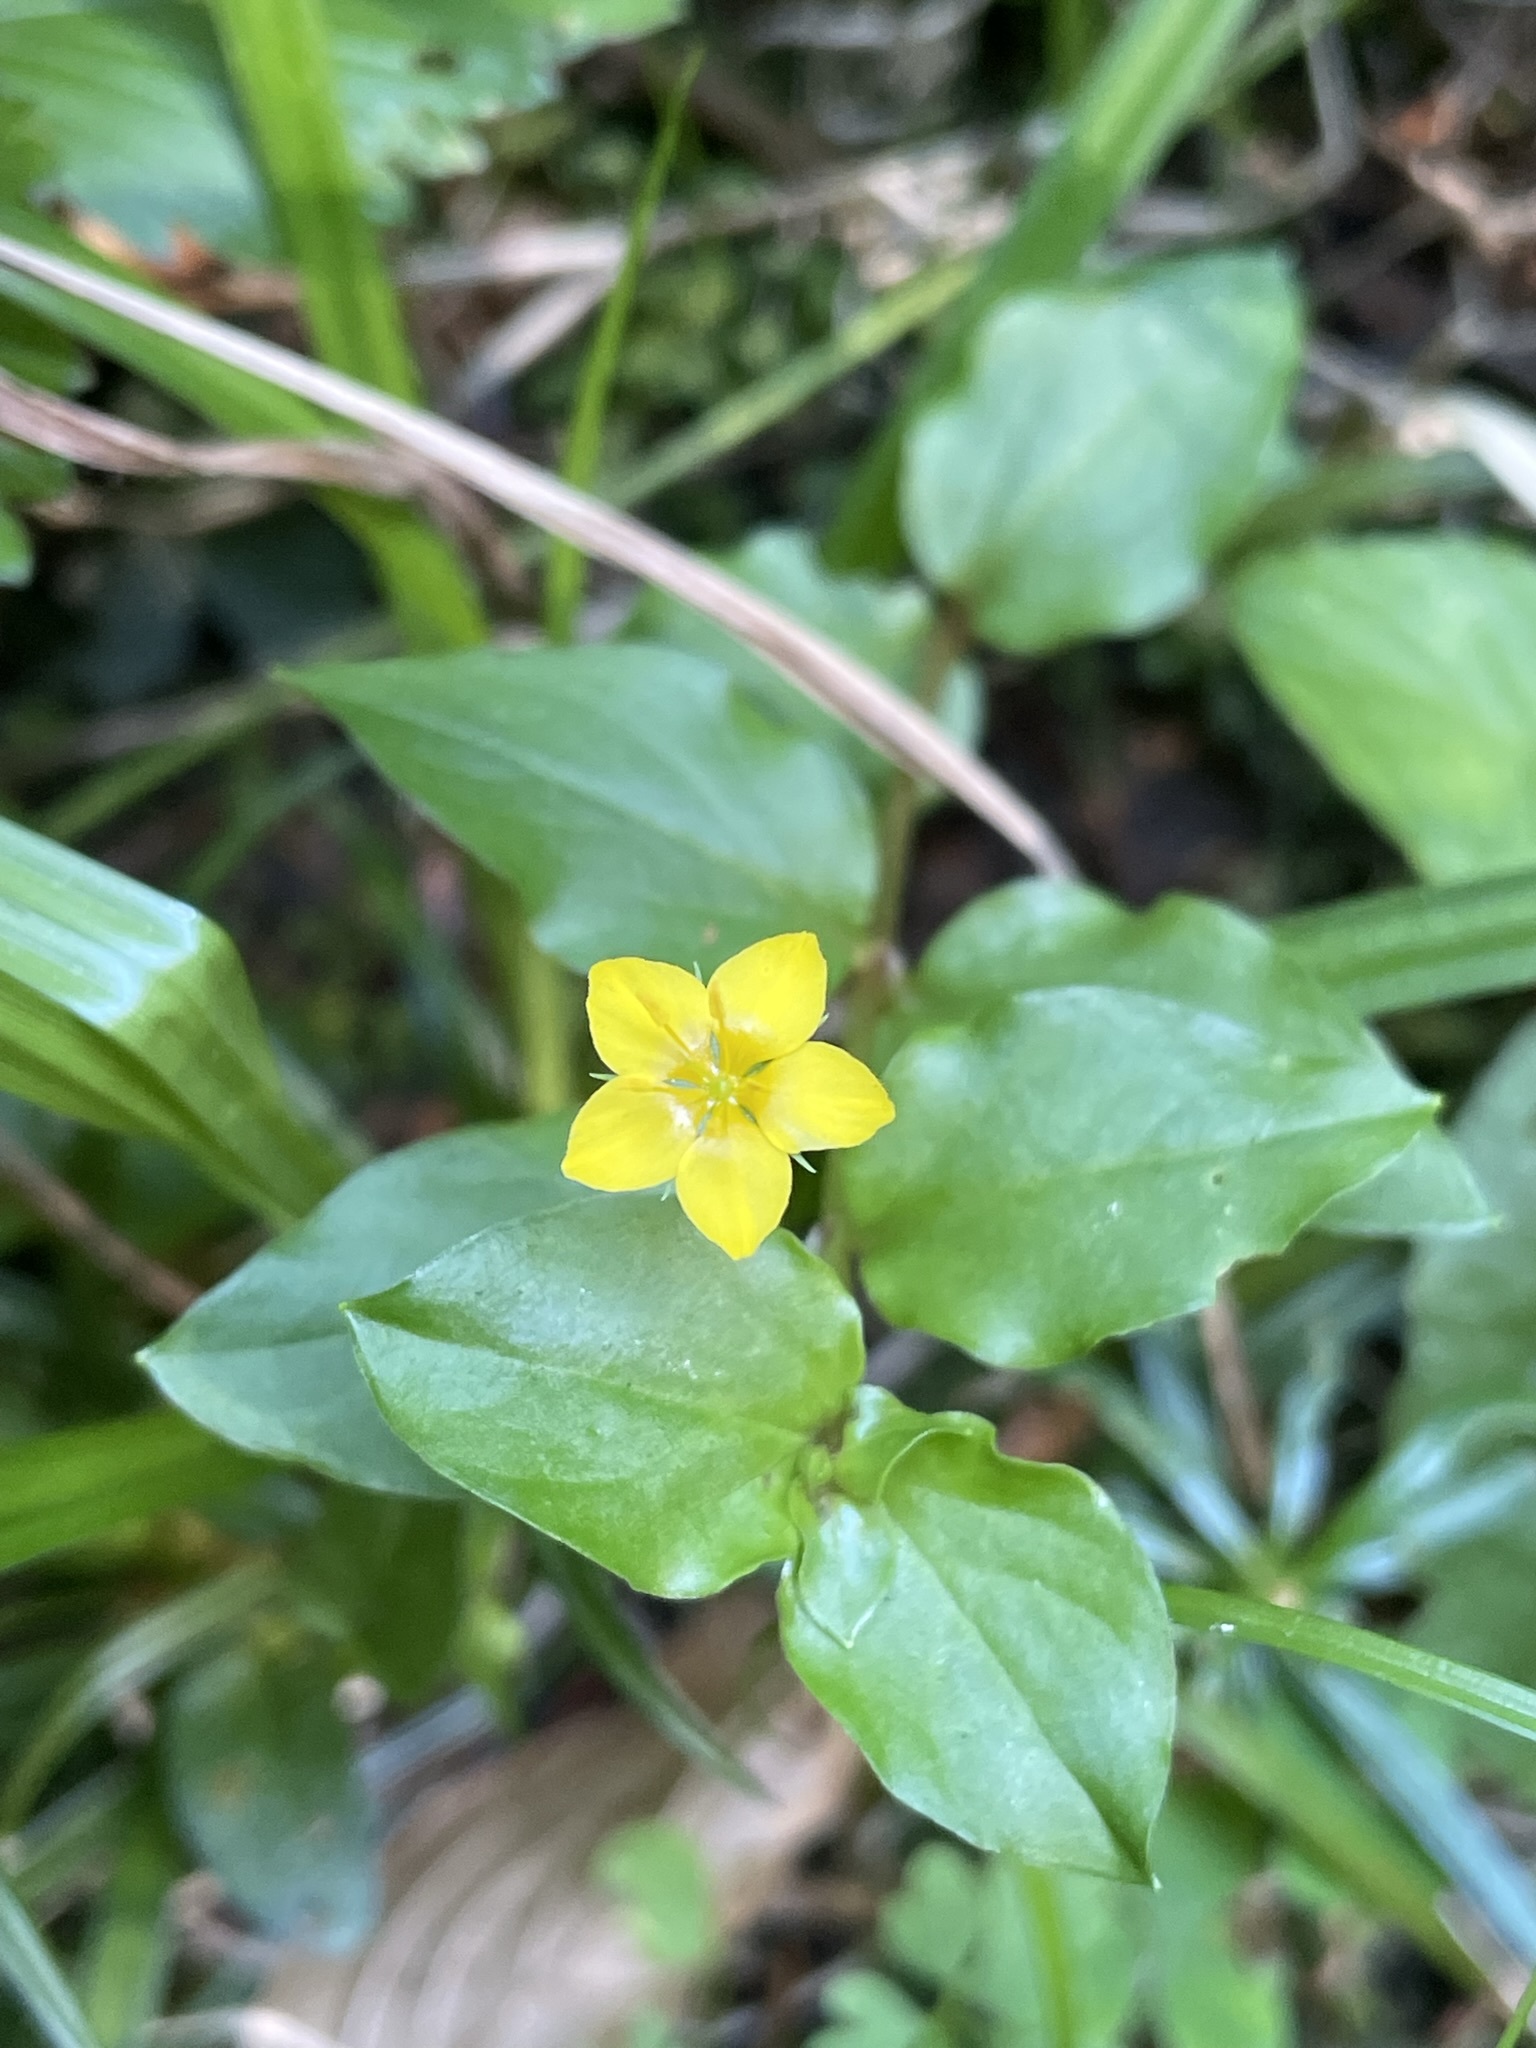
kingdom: Plantae
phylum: Tracheophyta
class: Magnoliopsida
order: Ericales
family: Primulaceae
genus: Lysimachia
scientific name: Lysimachia nemorum
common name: Yellow pimpernel
